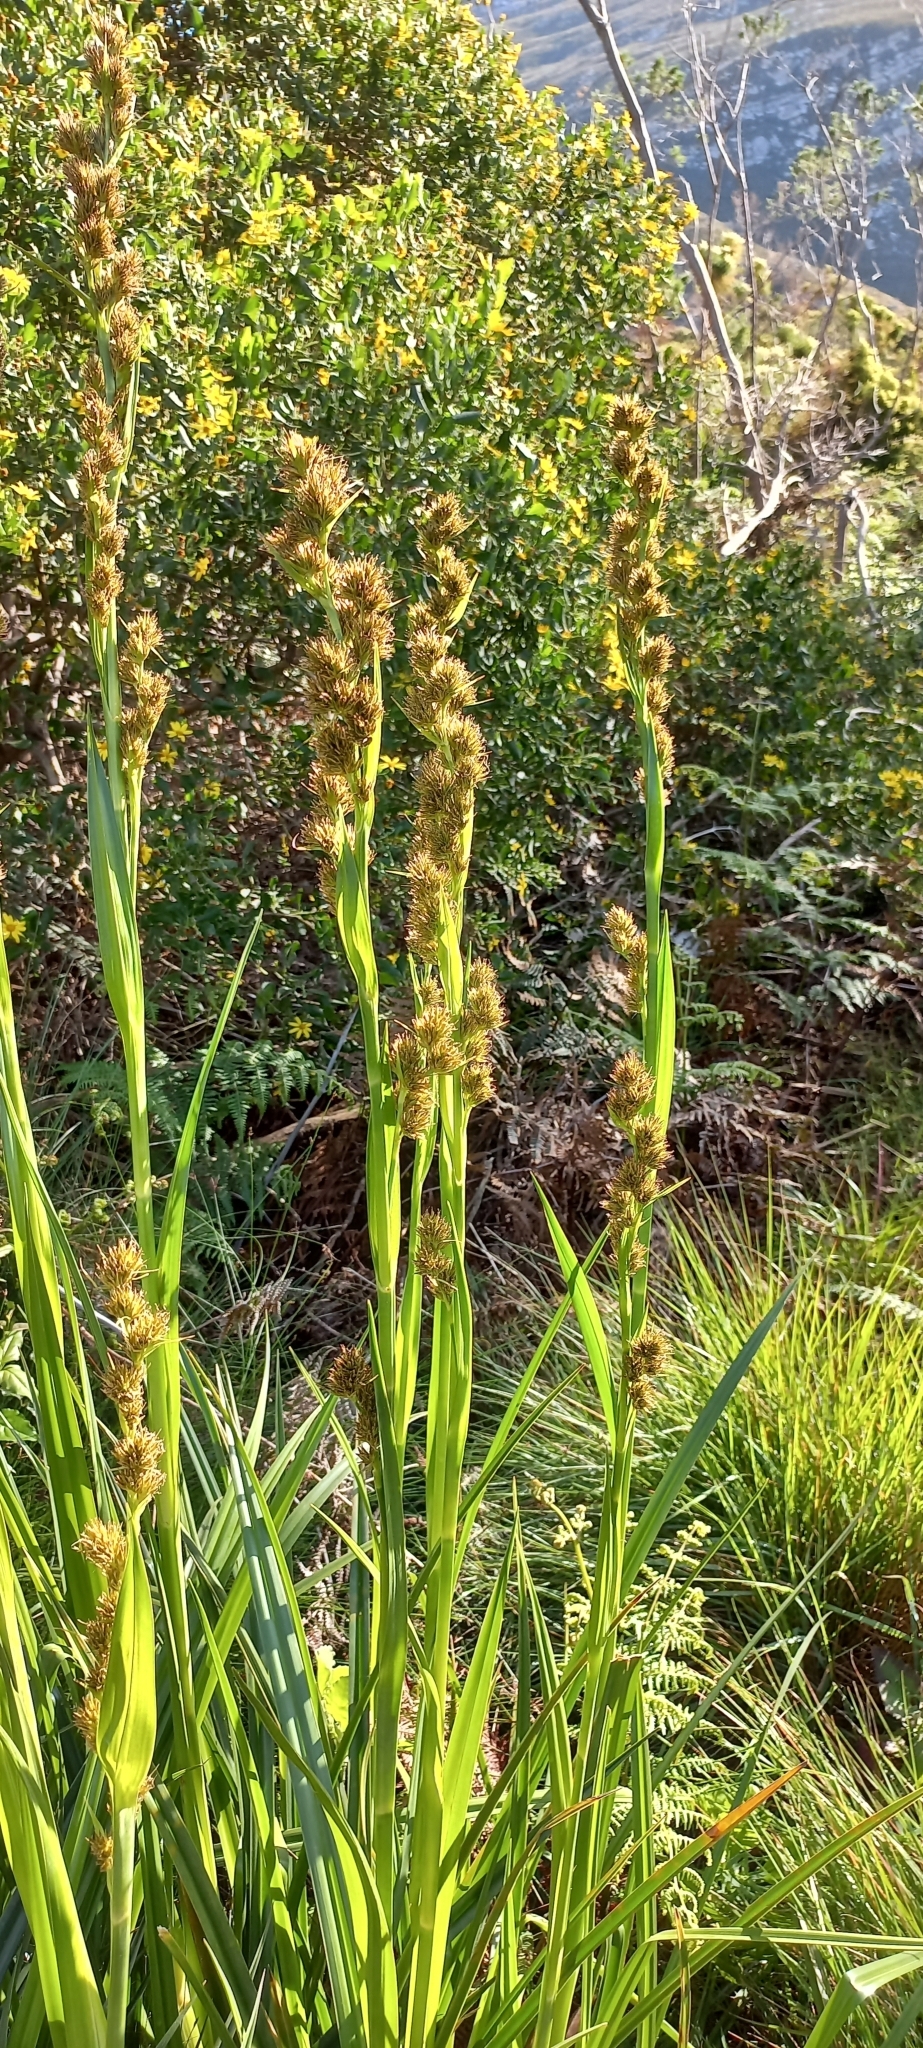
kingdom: Plantae
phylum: Tracheophyta
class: Liliopsida
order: Poales
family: Cyperaceae
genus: Carpha
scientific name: Carpha glomerata
